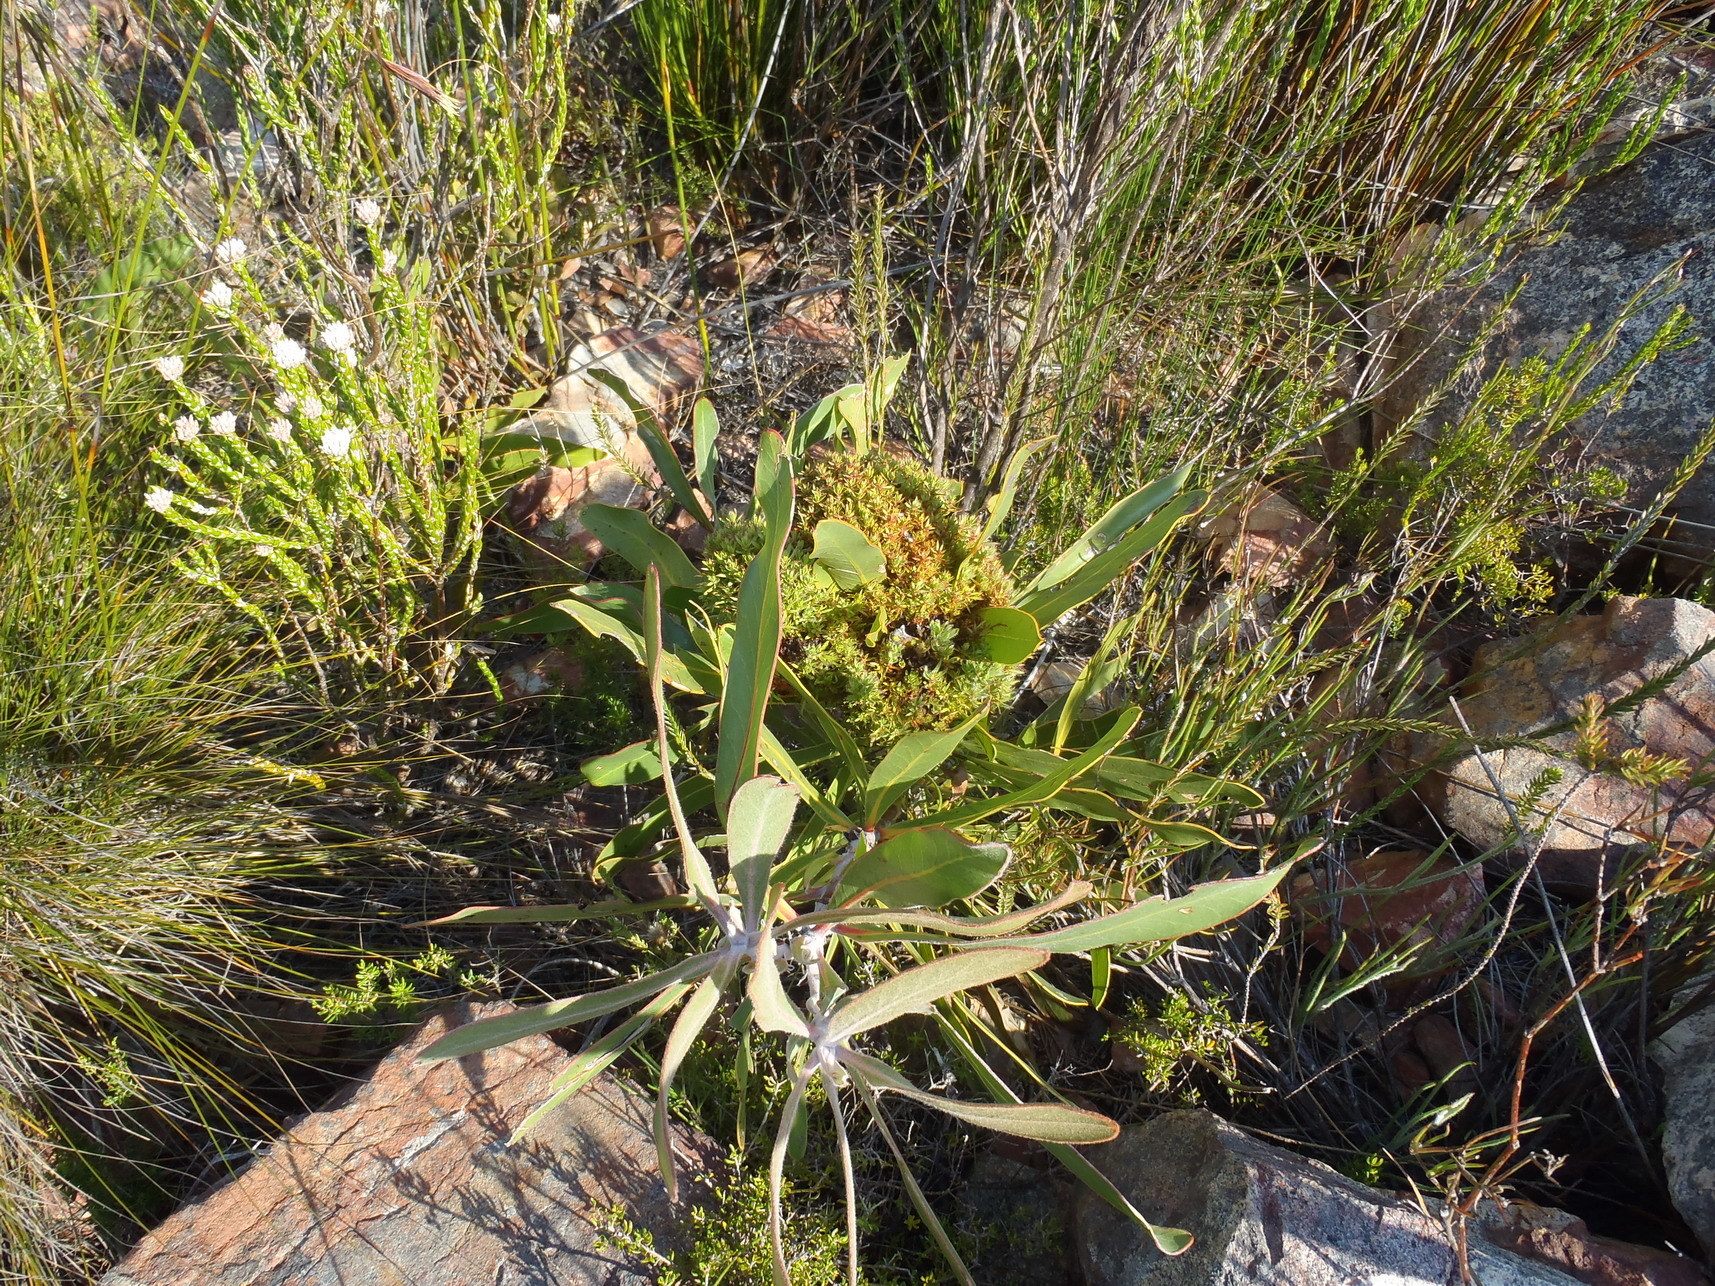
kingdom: Bacteria
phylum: Firmicutes
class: Bacilli
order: Acholeplasmatales
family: Acholeplasmataceae
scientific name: Acholeplasmataceae
